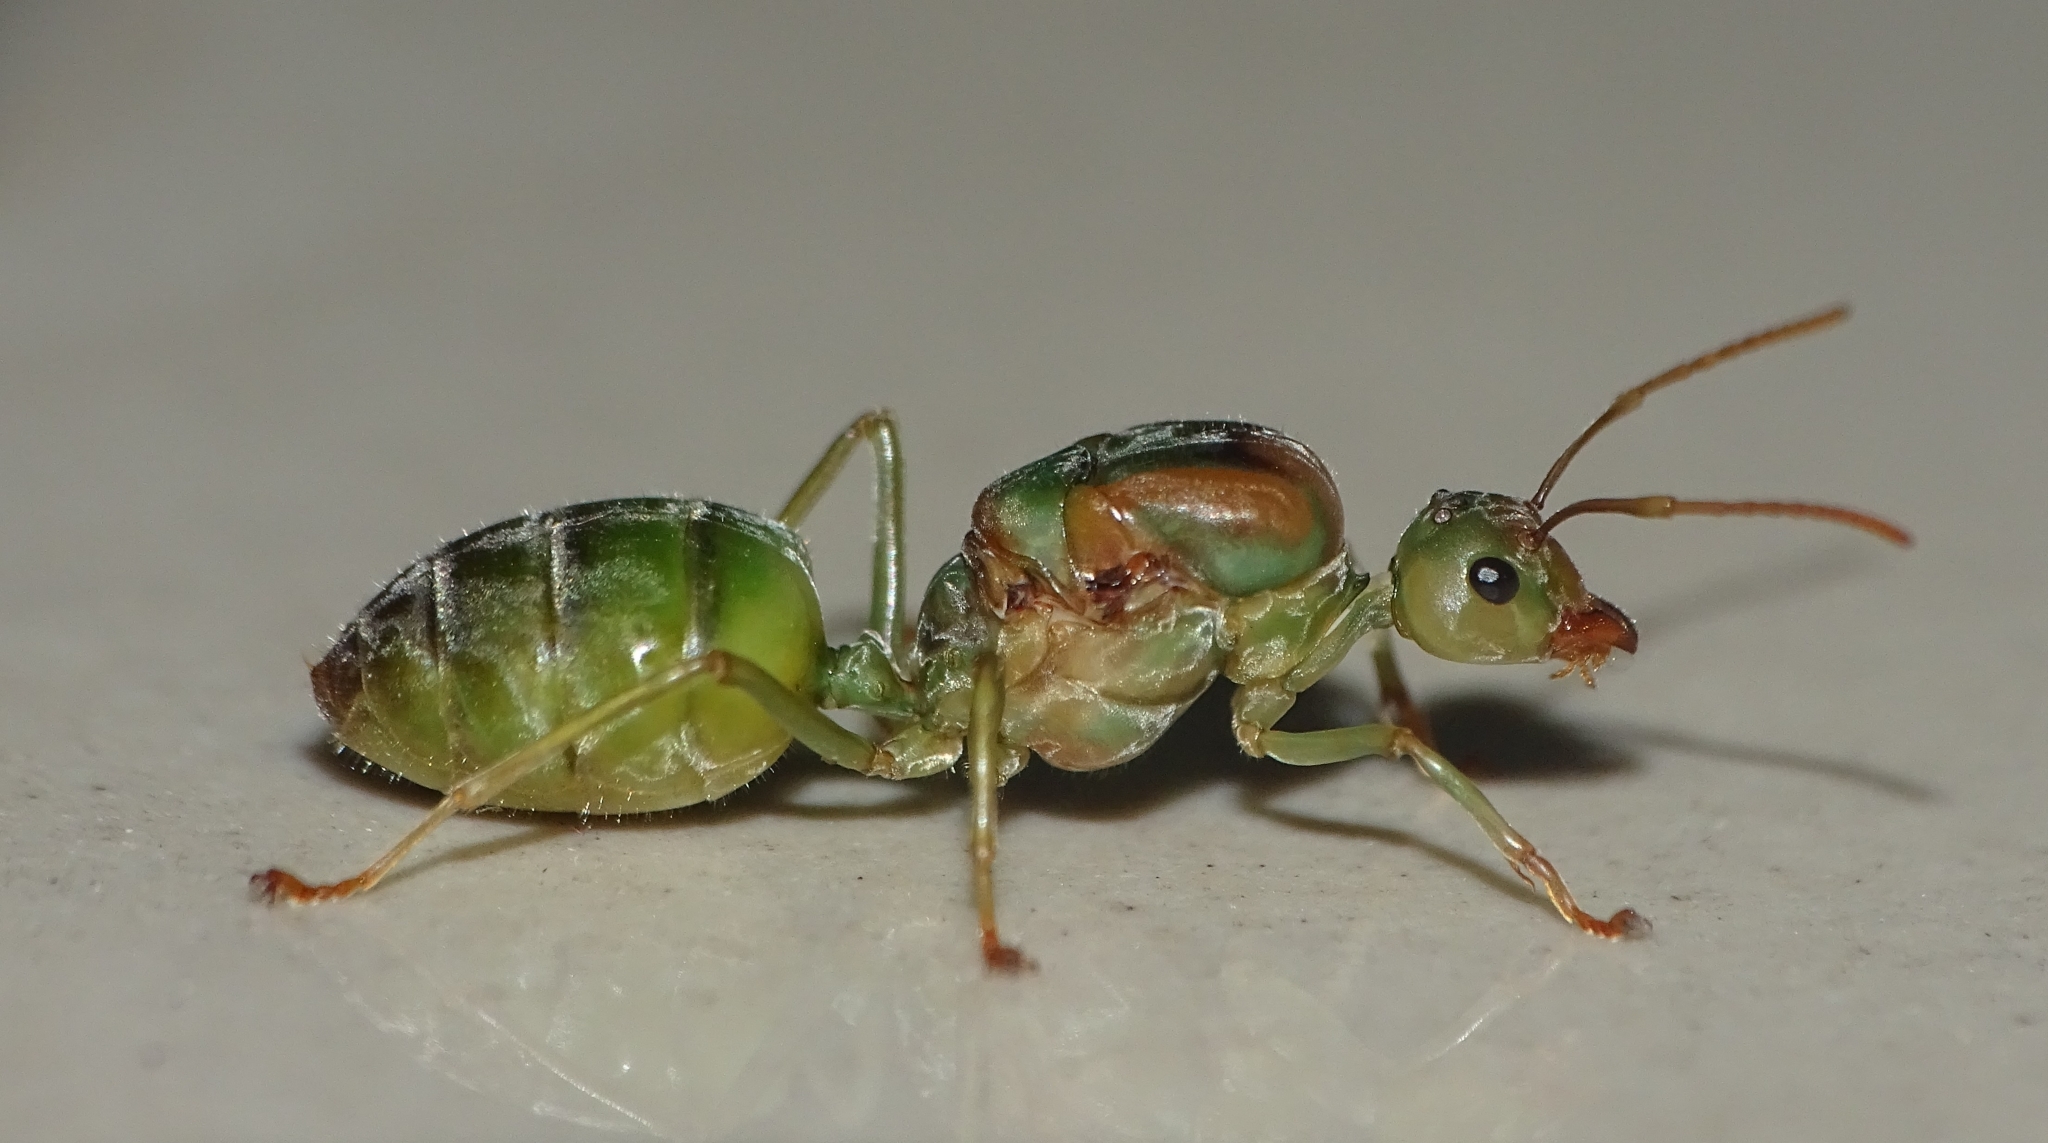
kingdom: Animalia
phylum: Arthropoda
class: Insecta
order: Hymenoptera
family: Formicidae
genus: Oecophylla
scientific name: Oecophylla smaragdina
